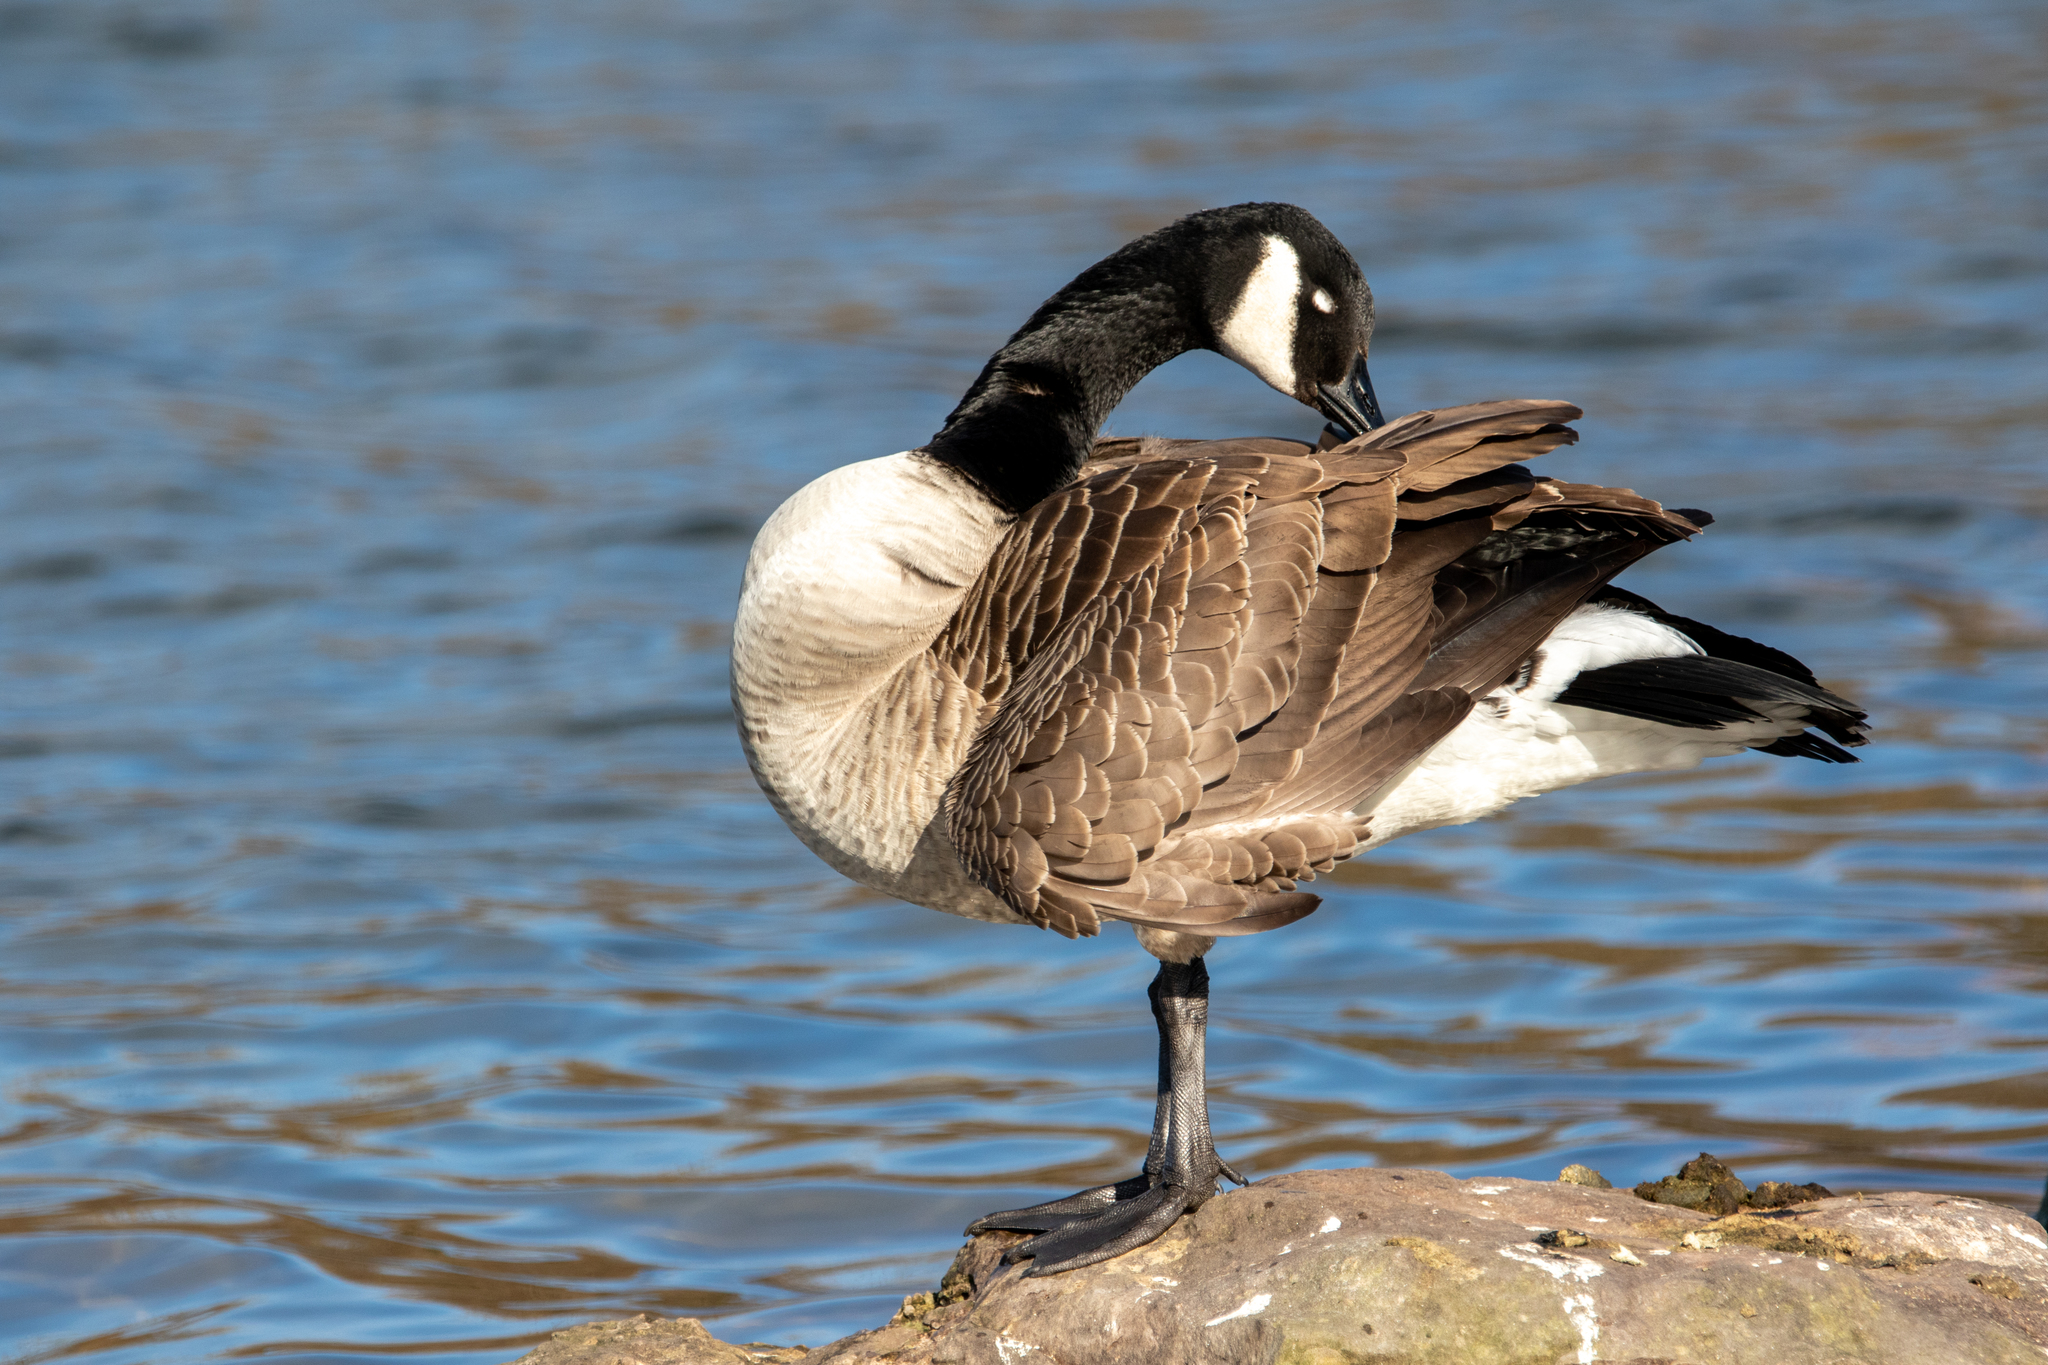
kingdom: Animalia
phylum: Chordata
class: Aves
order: Anseriformes
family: Anatidae
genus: Branta
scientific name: Branta canadensis
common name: Canada goose
